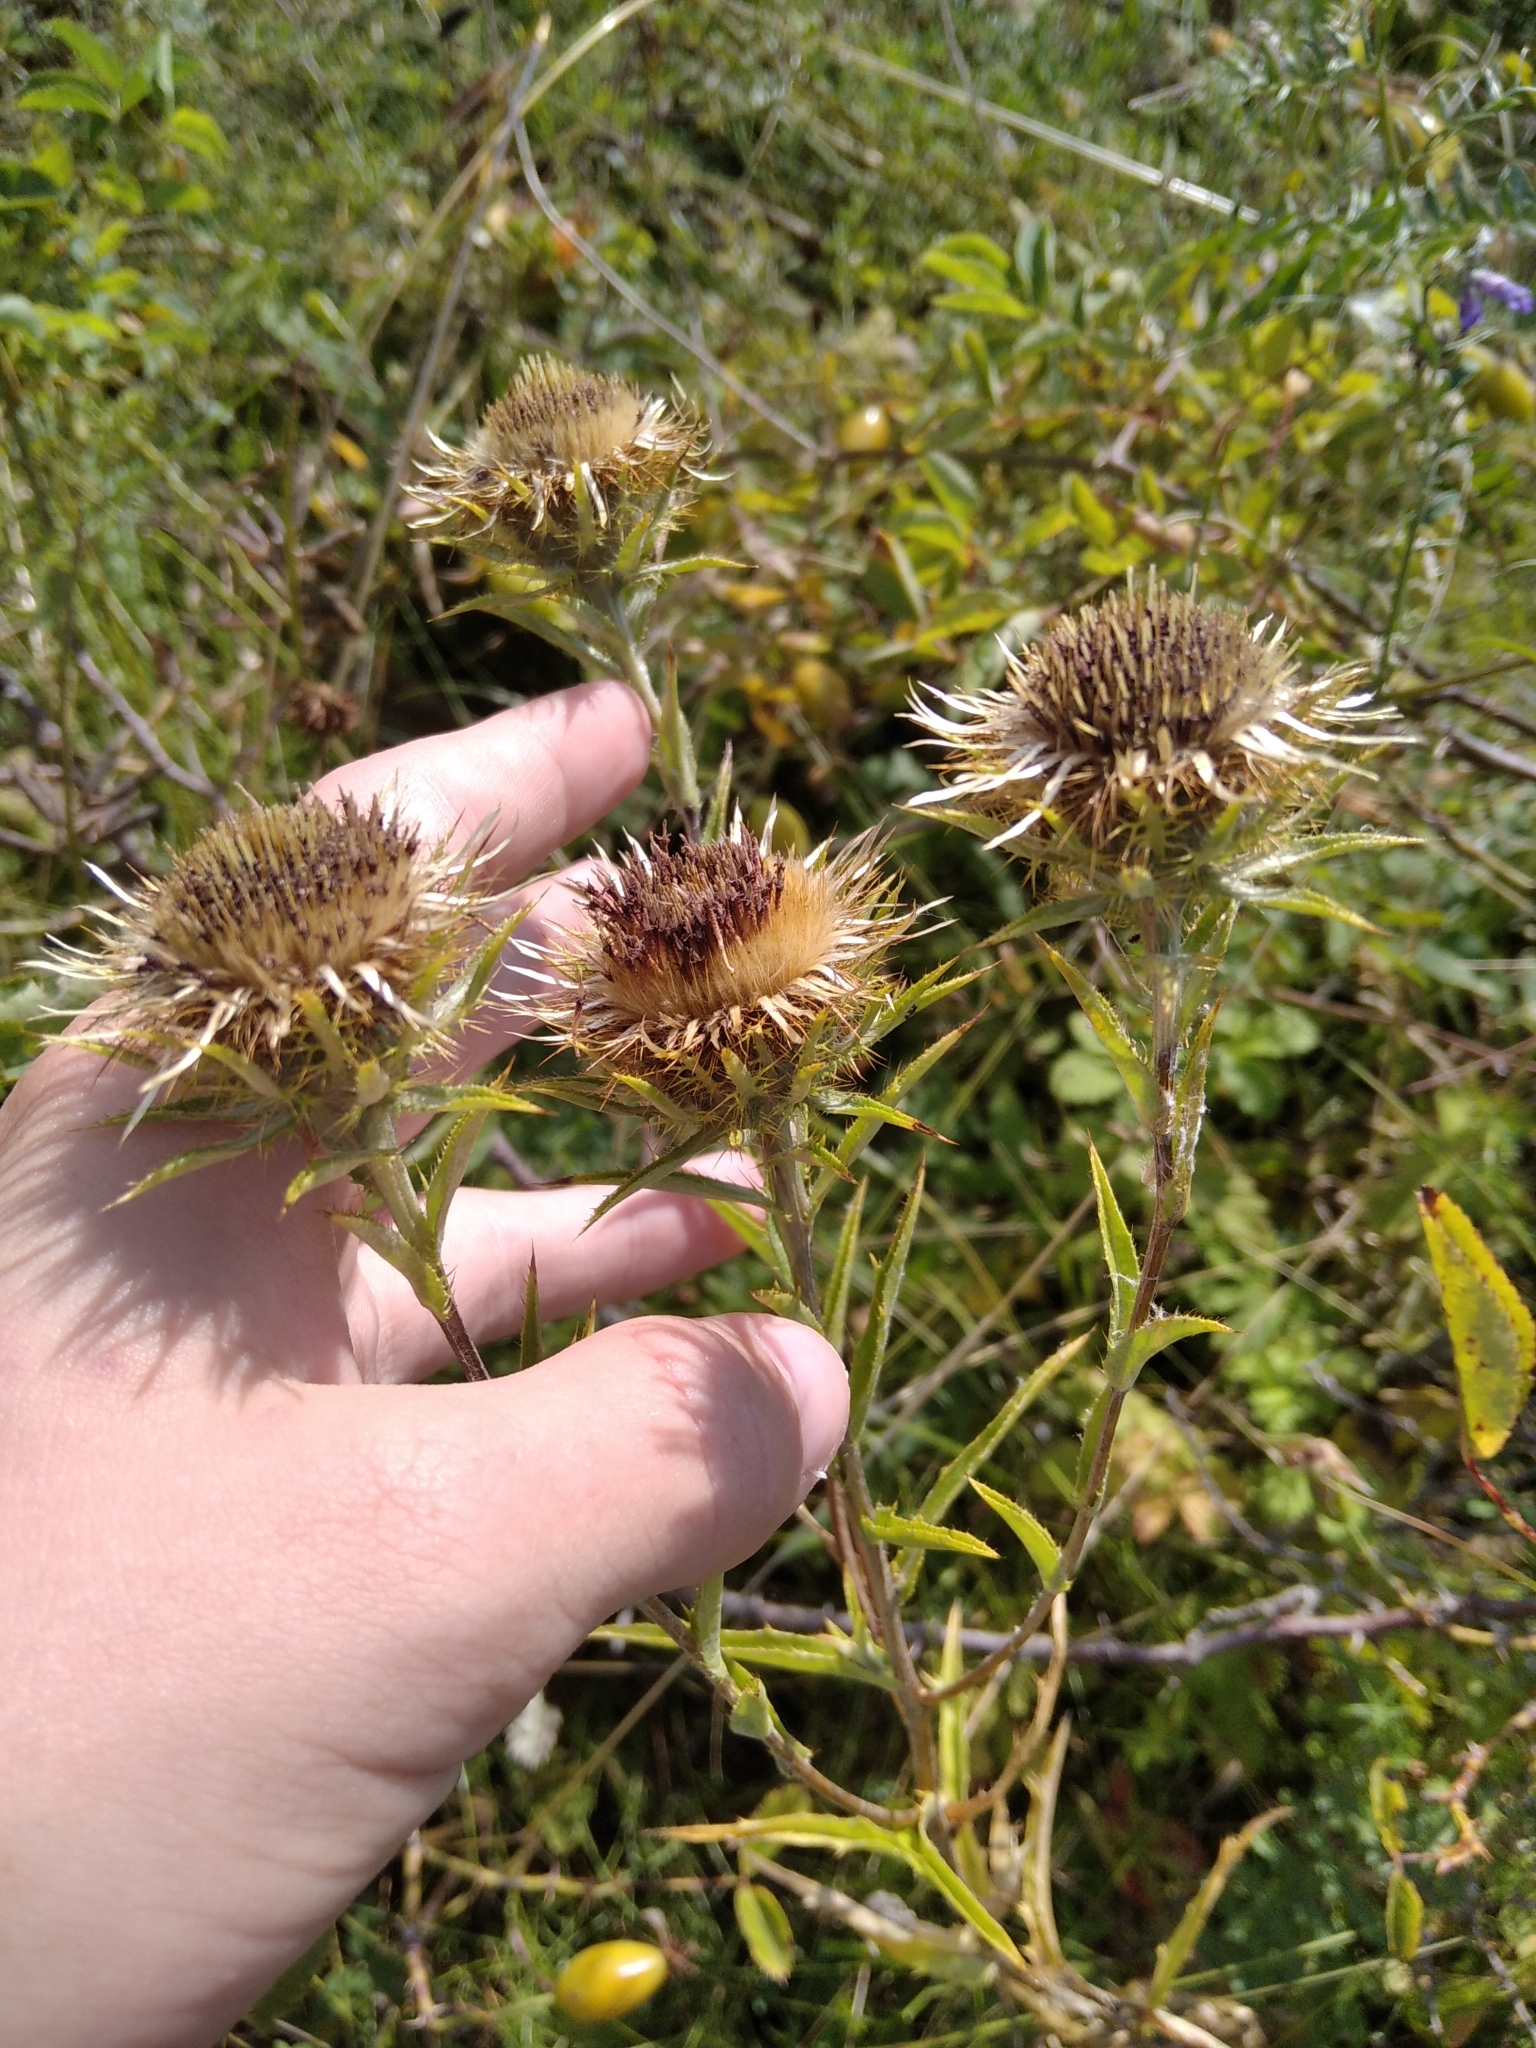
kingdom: Plantae
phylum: Tracheophyta
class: Magnoliopsida
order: Asterales
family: Asteraceae
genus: Carlina
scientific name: Carlina biebersteinii
